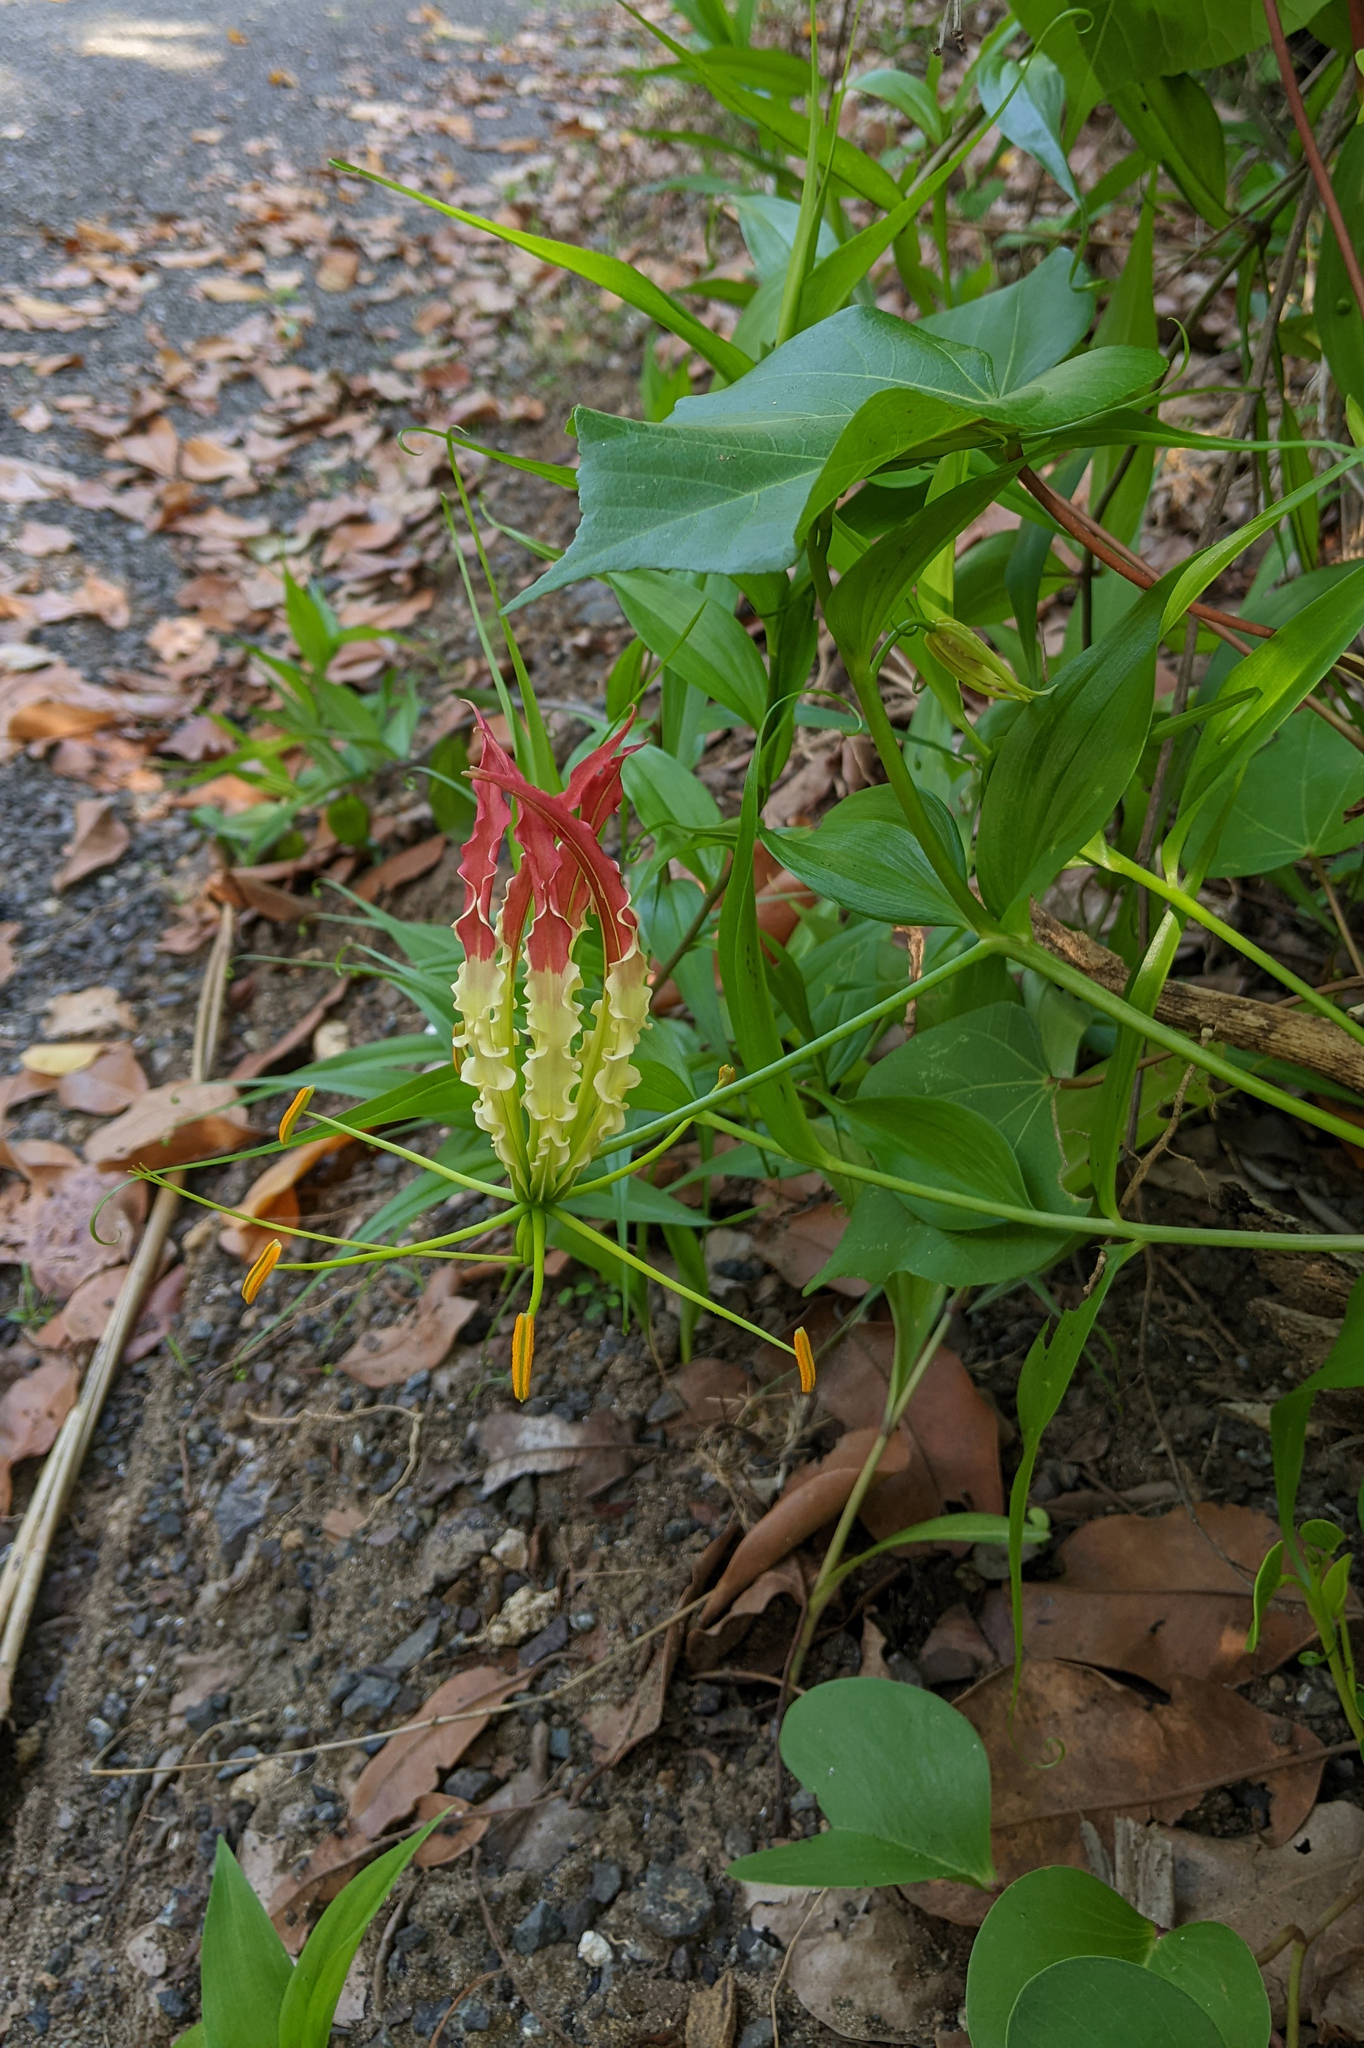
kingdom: Plantae
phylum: Tracheophyta
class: Liliopsida
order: Liliales
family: Colchicaceae
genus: Gloriosa
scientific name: Gloriosa superba
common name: Flame lily
